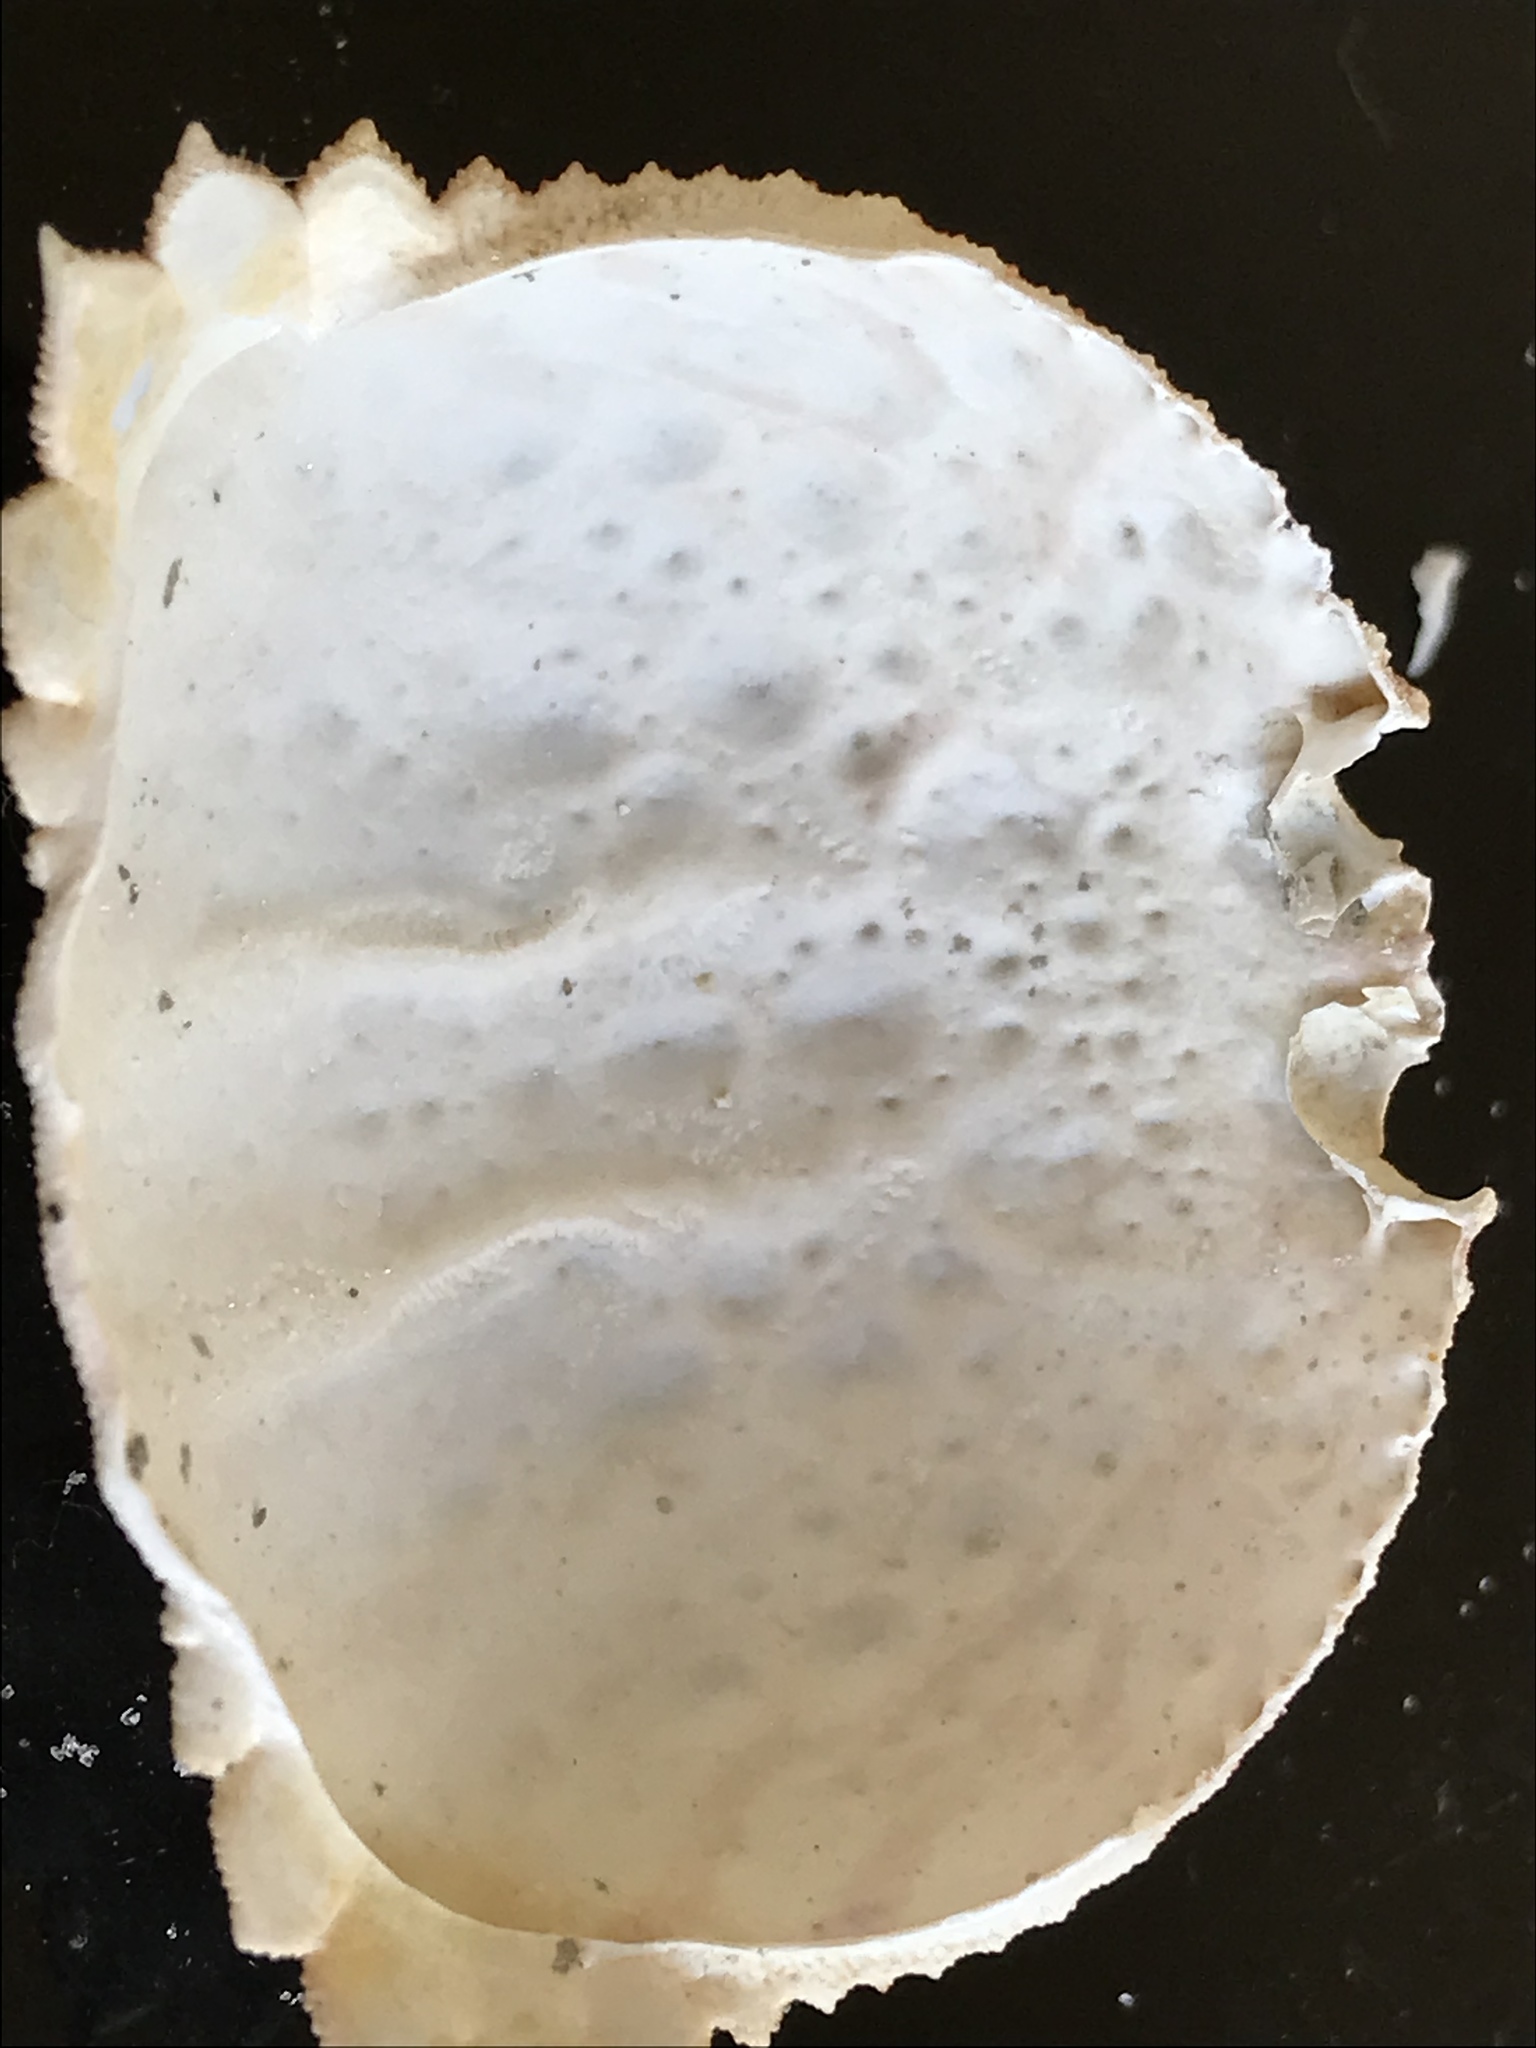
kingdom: Animalia
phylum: Arthropoda
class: Malacostraca
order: Decapoda
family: Calappidae
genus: Calappa
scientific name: Calappa flammea
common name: Flamed box crab
